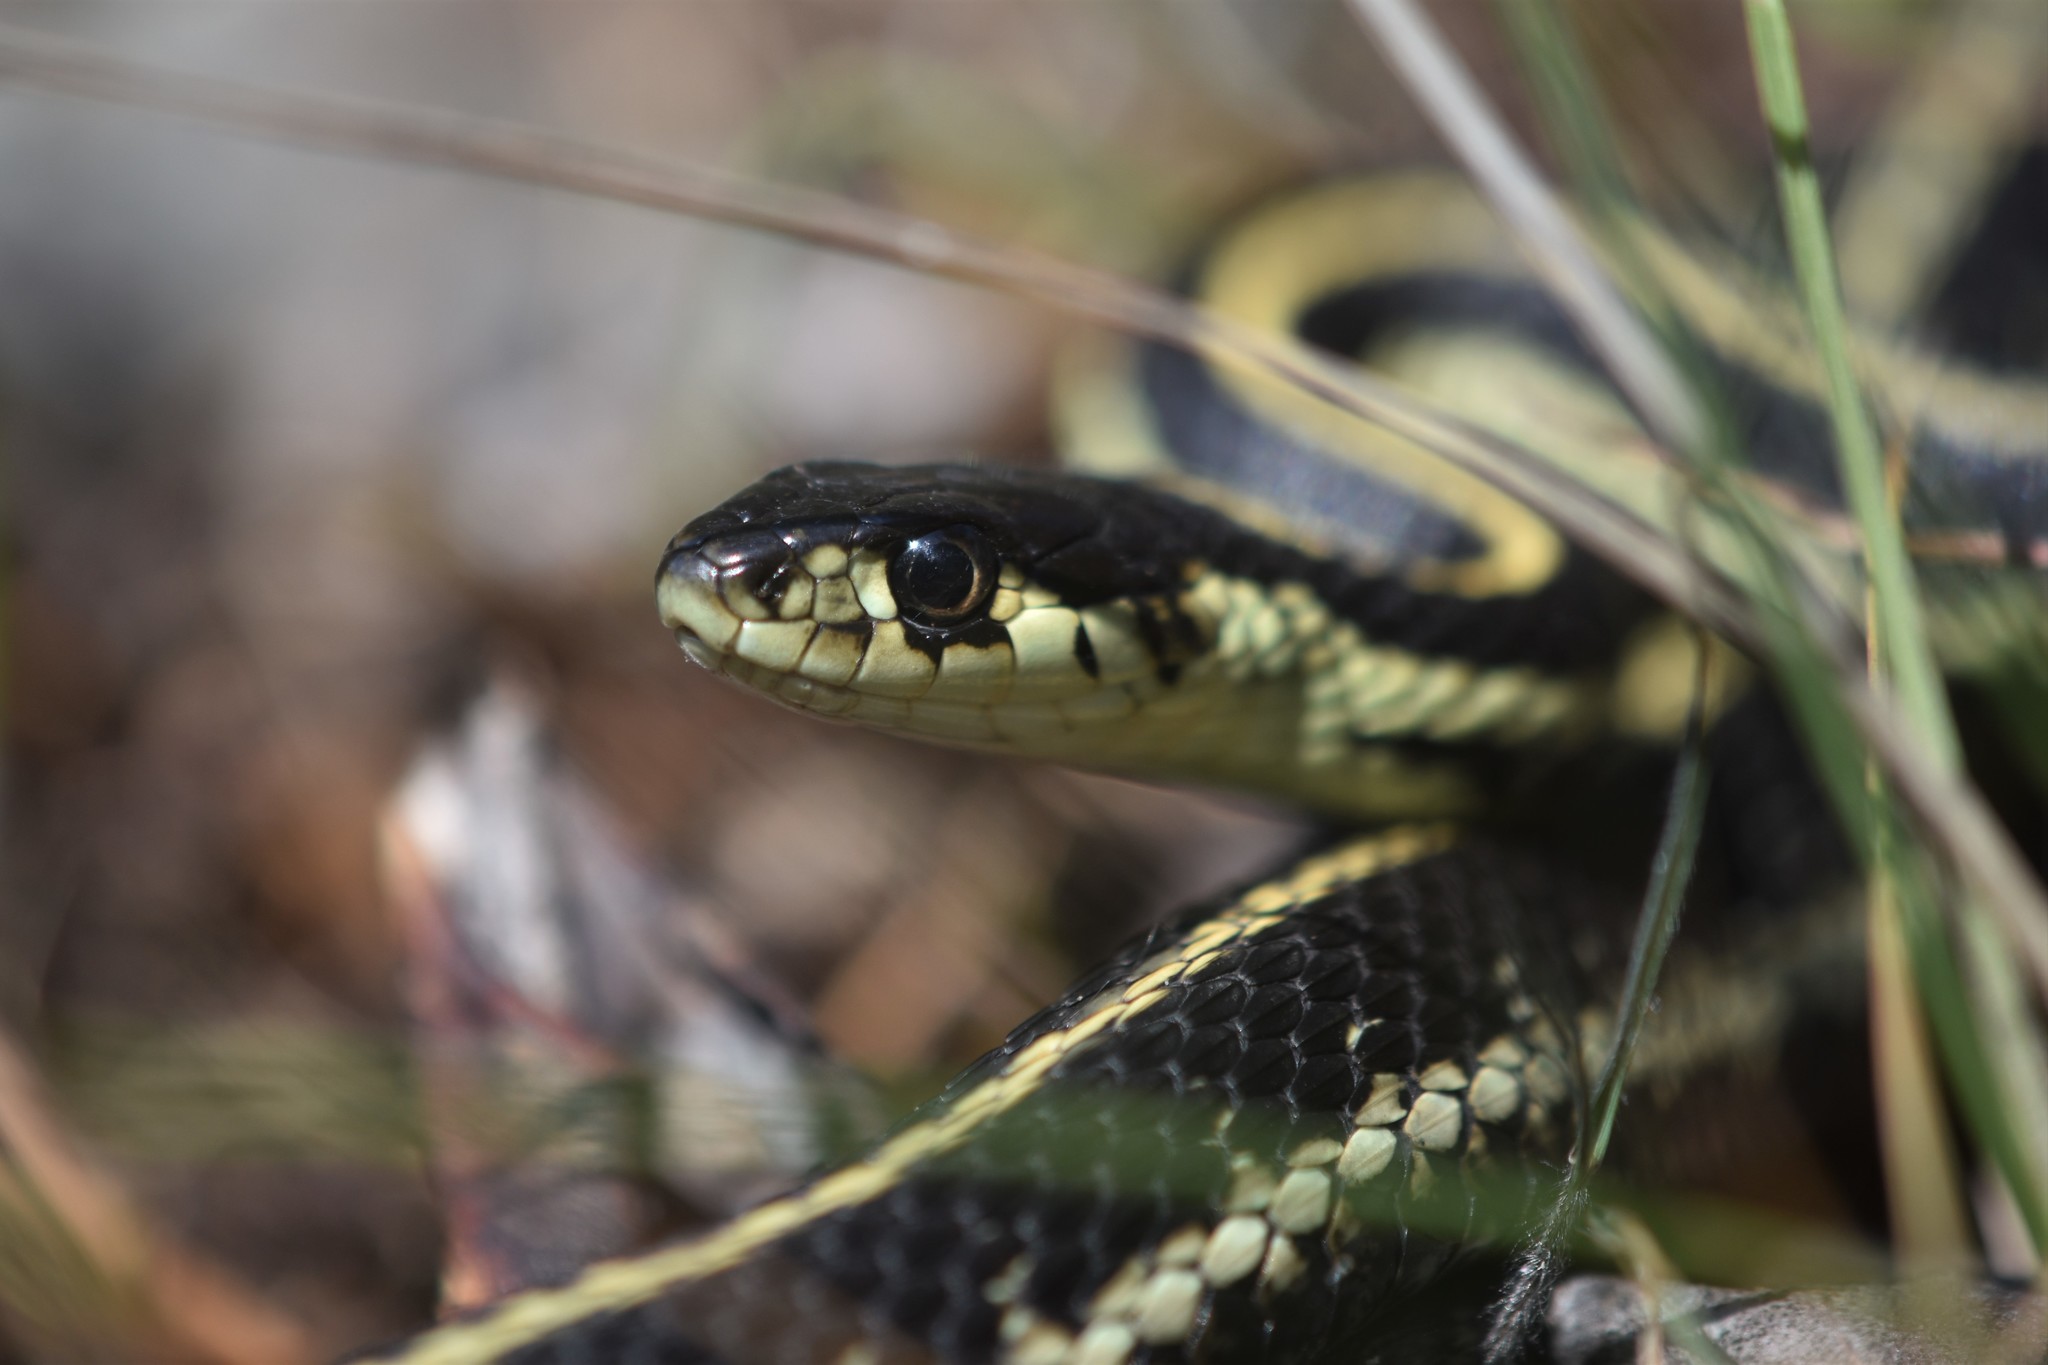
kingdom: Animalia
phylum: Chordata
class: Squamata
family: Colubridae
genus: Thamnophis
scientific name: Thamnophis sirtalis
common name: Common garter snake
